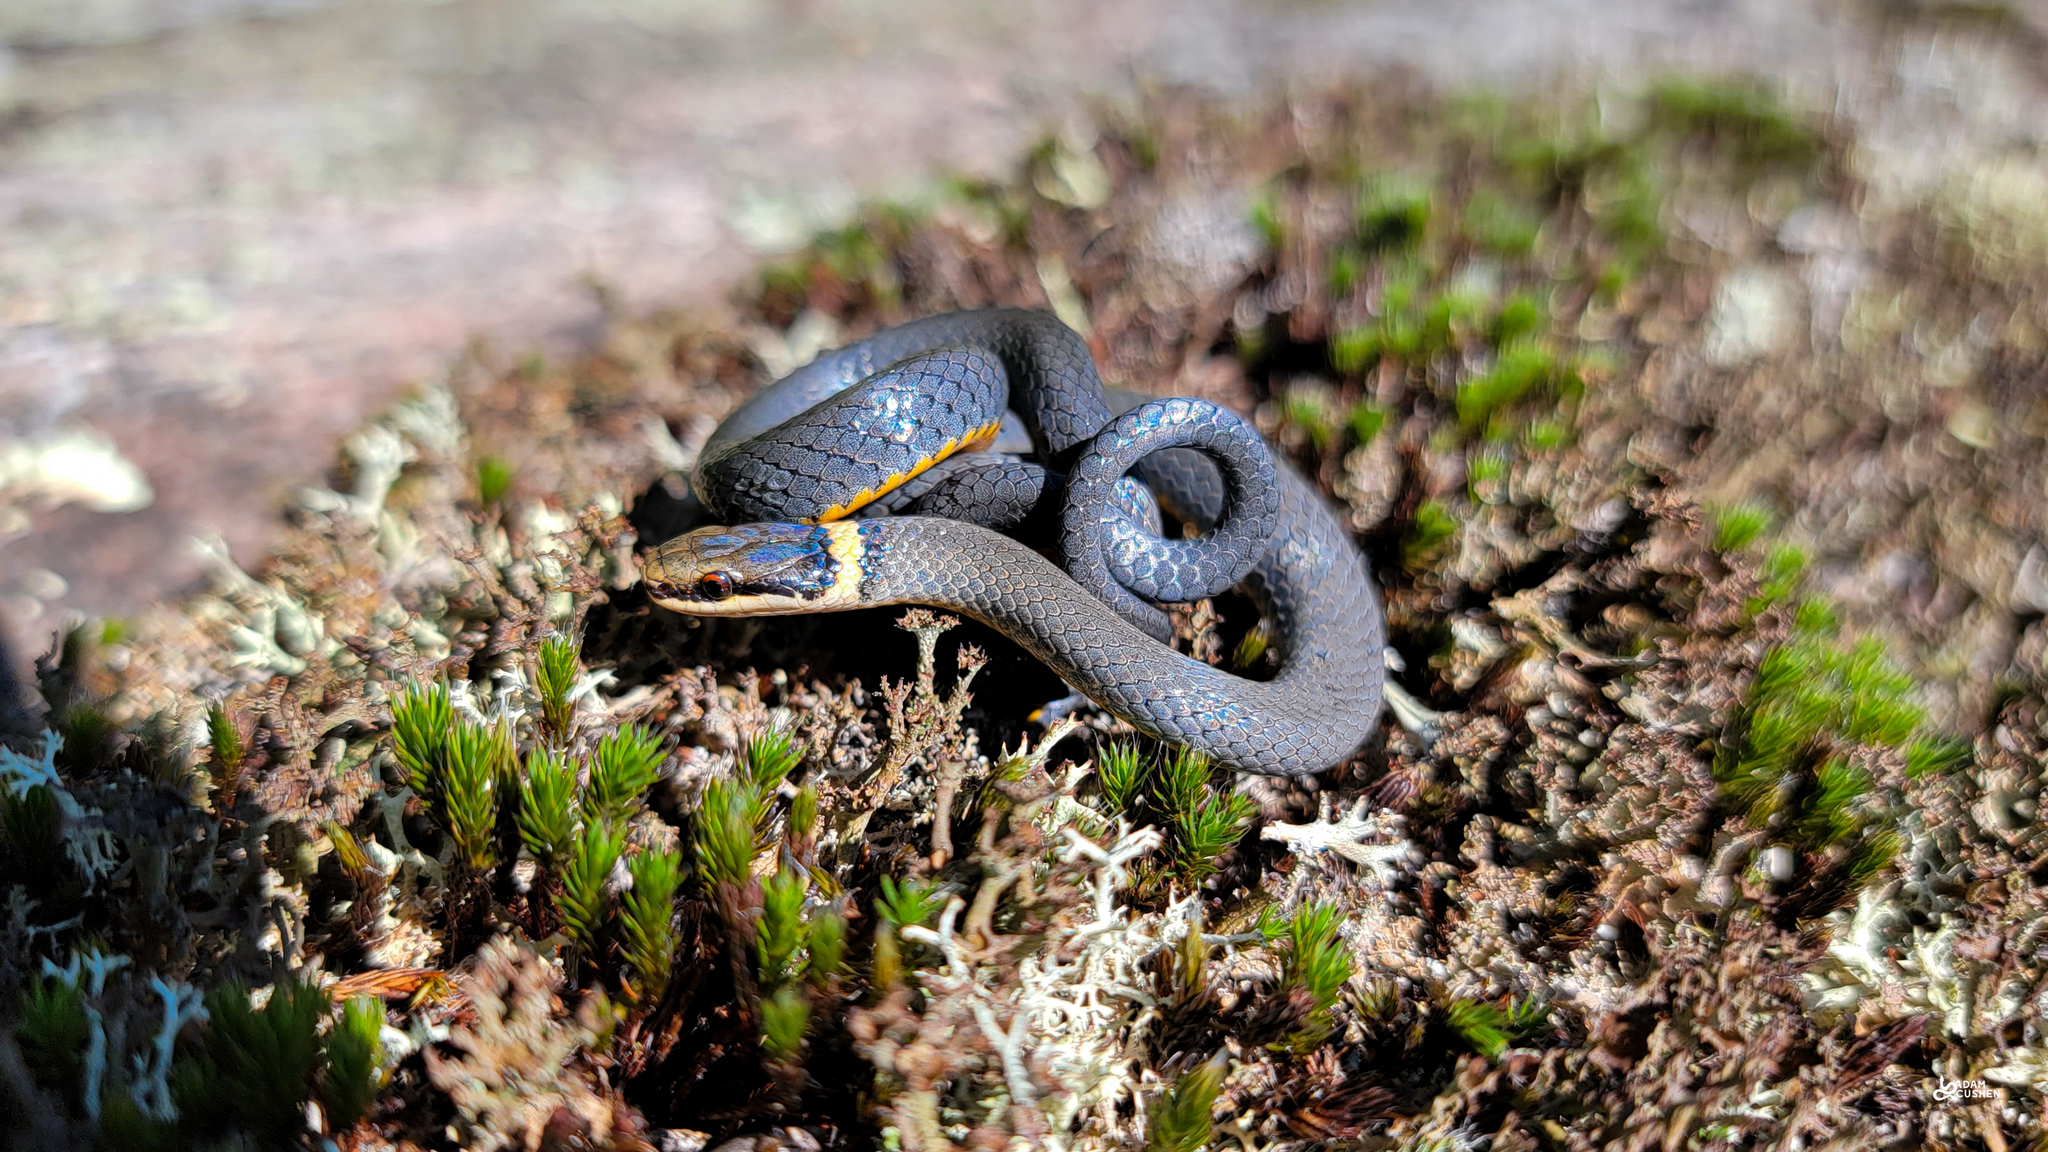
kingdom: Animalia
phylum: Chordata
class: Squamata
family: Colubridae
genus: Diadophis
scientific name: Diadophis punctatus
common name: Ringneck snake
